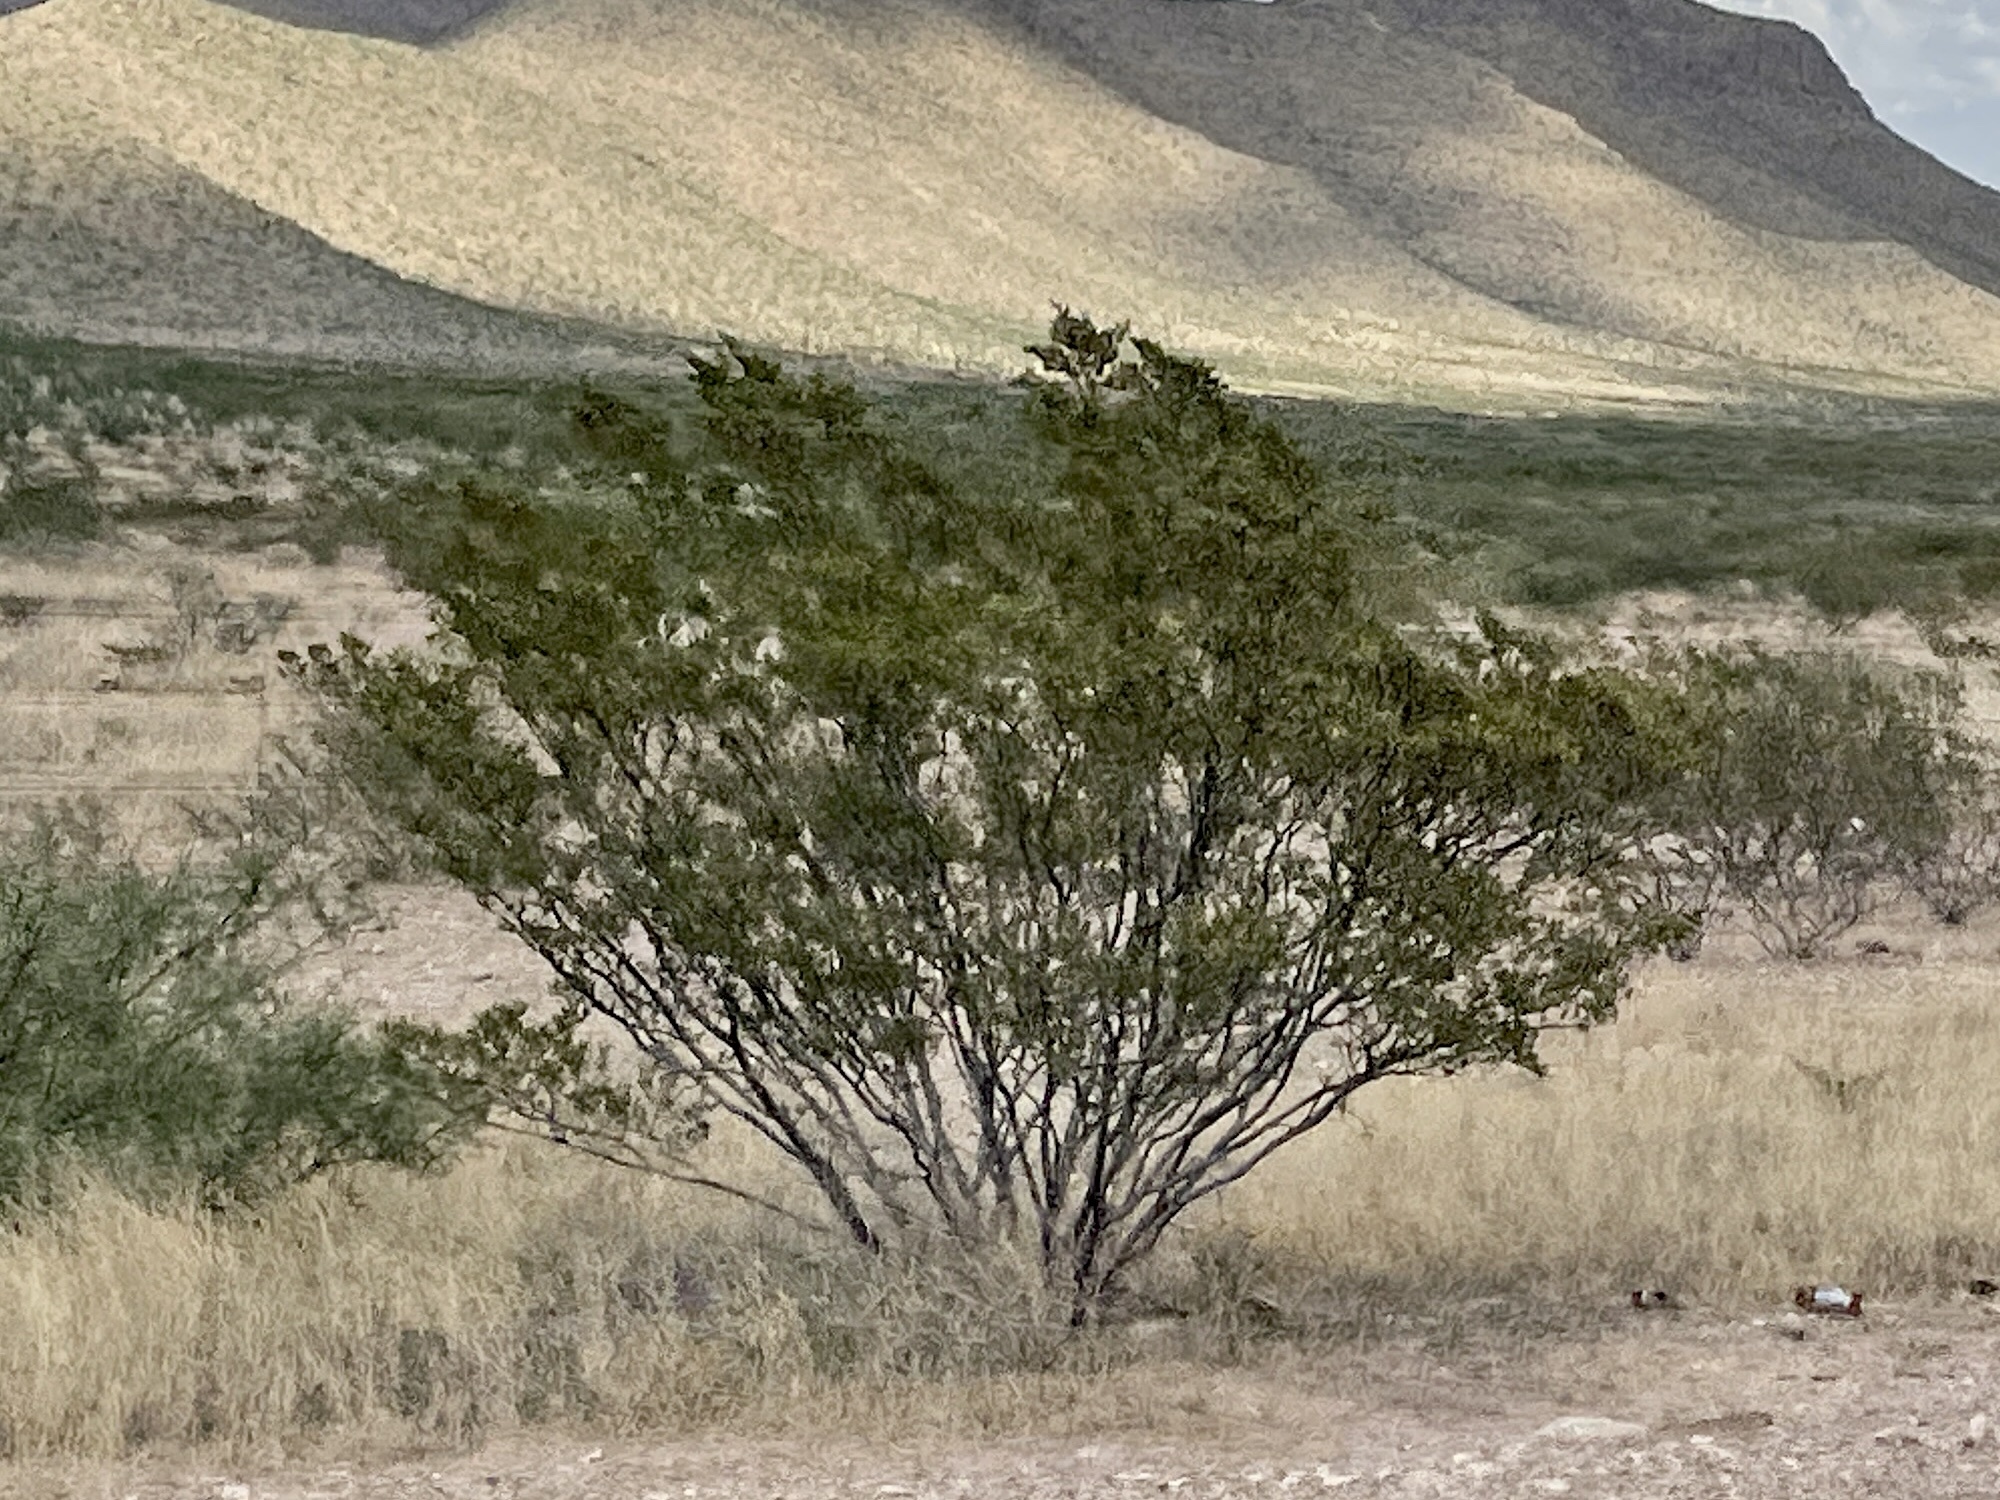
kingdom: Plantae
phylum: Tracheophyta
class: Magnoliopsida
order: Zygophyllales
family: Zygophyllaceae
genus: Larrea
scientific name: Larrea tridentata
